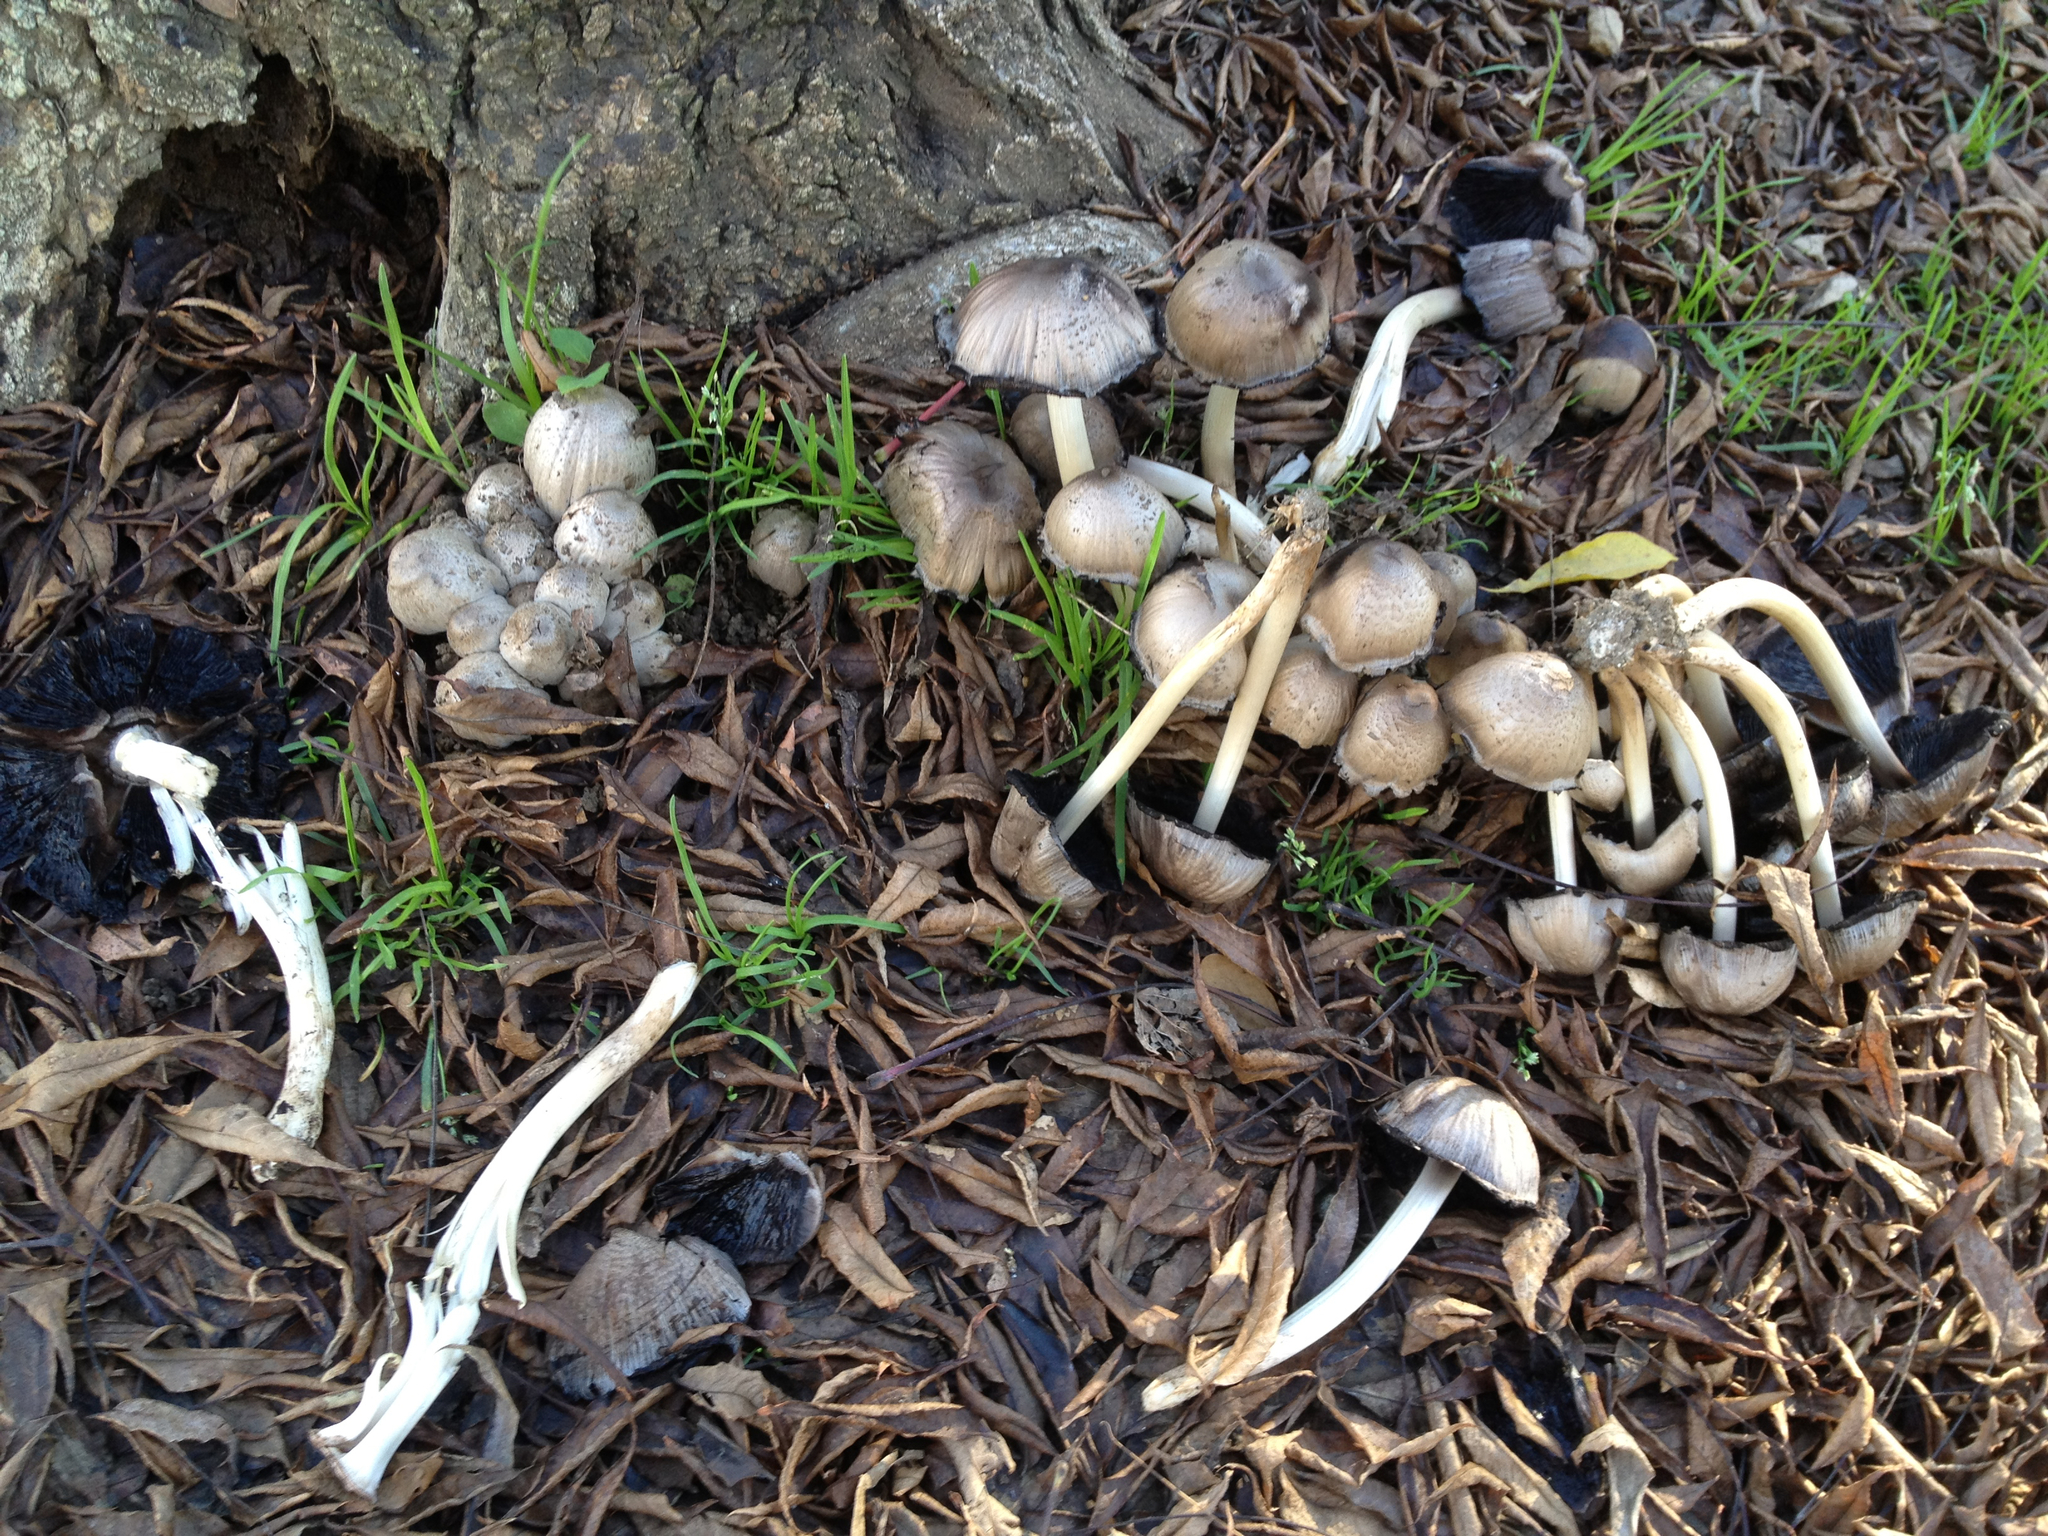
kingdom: Fungi
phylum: Basidiomycota
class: Agaricomycetes
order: Agaricales
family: Psathyrellaceae
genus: Coprinopsis
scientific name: Coprinopsis atramentaria
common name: Common ink-cap
